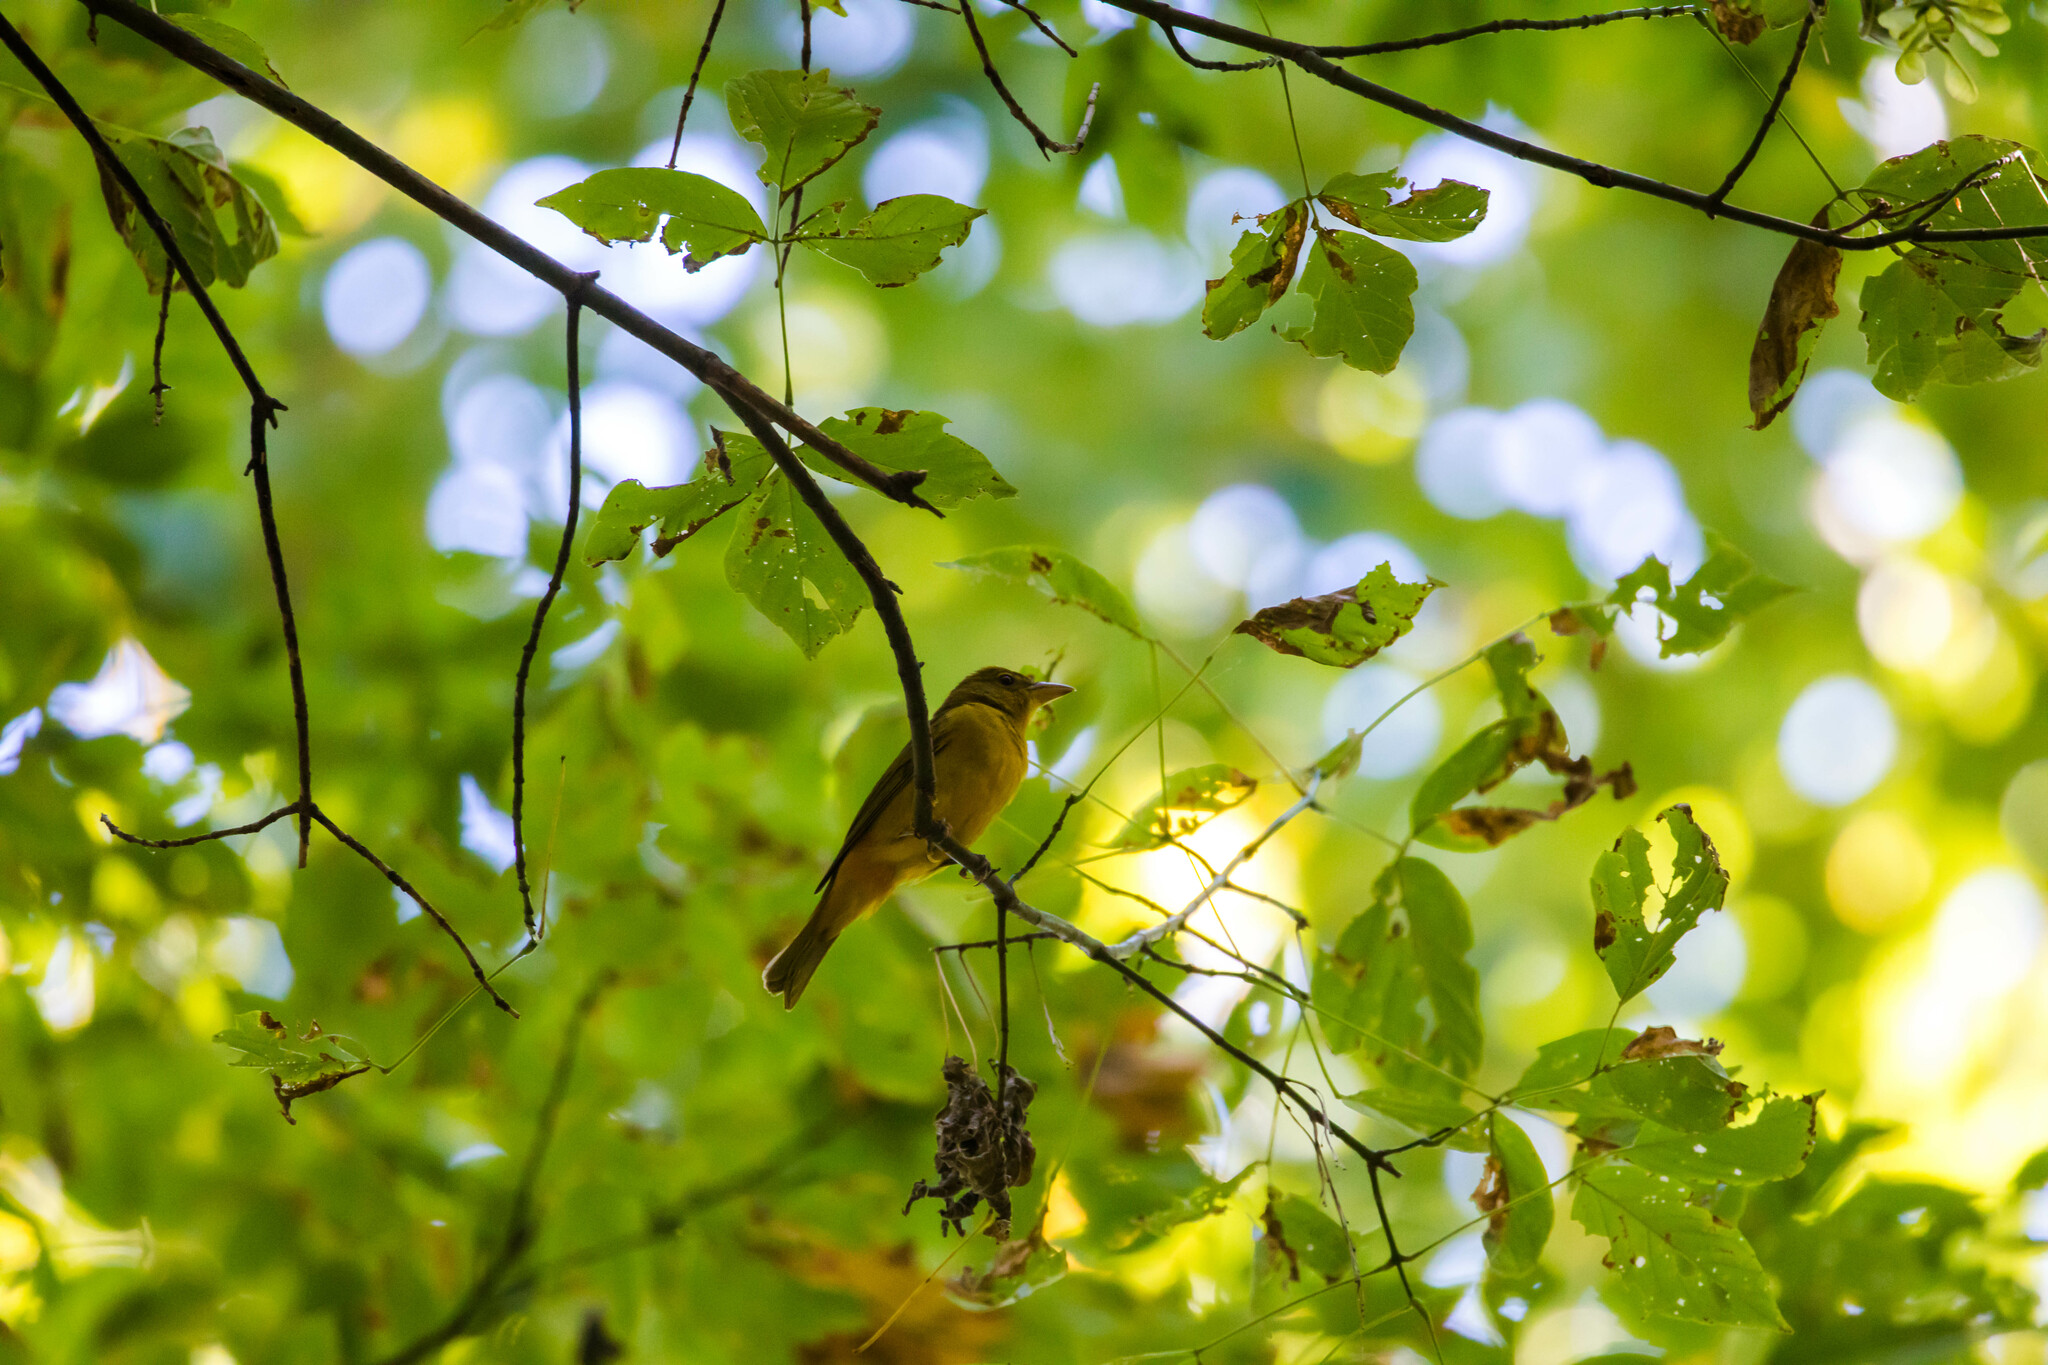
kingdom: Animalia
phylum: Chordata
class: Aves
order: Passeriformes
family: Cardinalidae
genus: Piranga
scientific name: Piranga rubra
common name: Summer tanager
